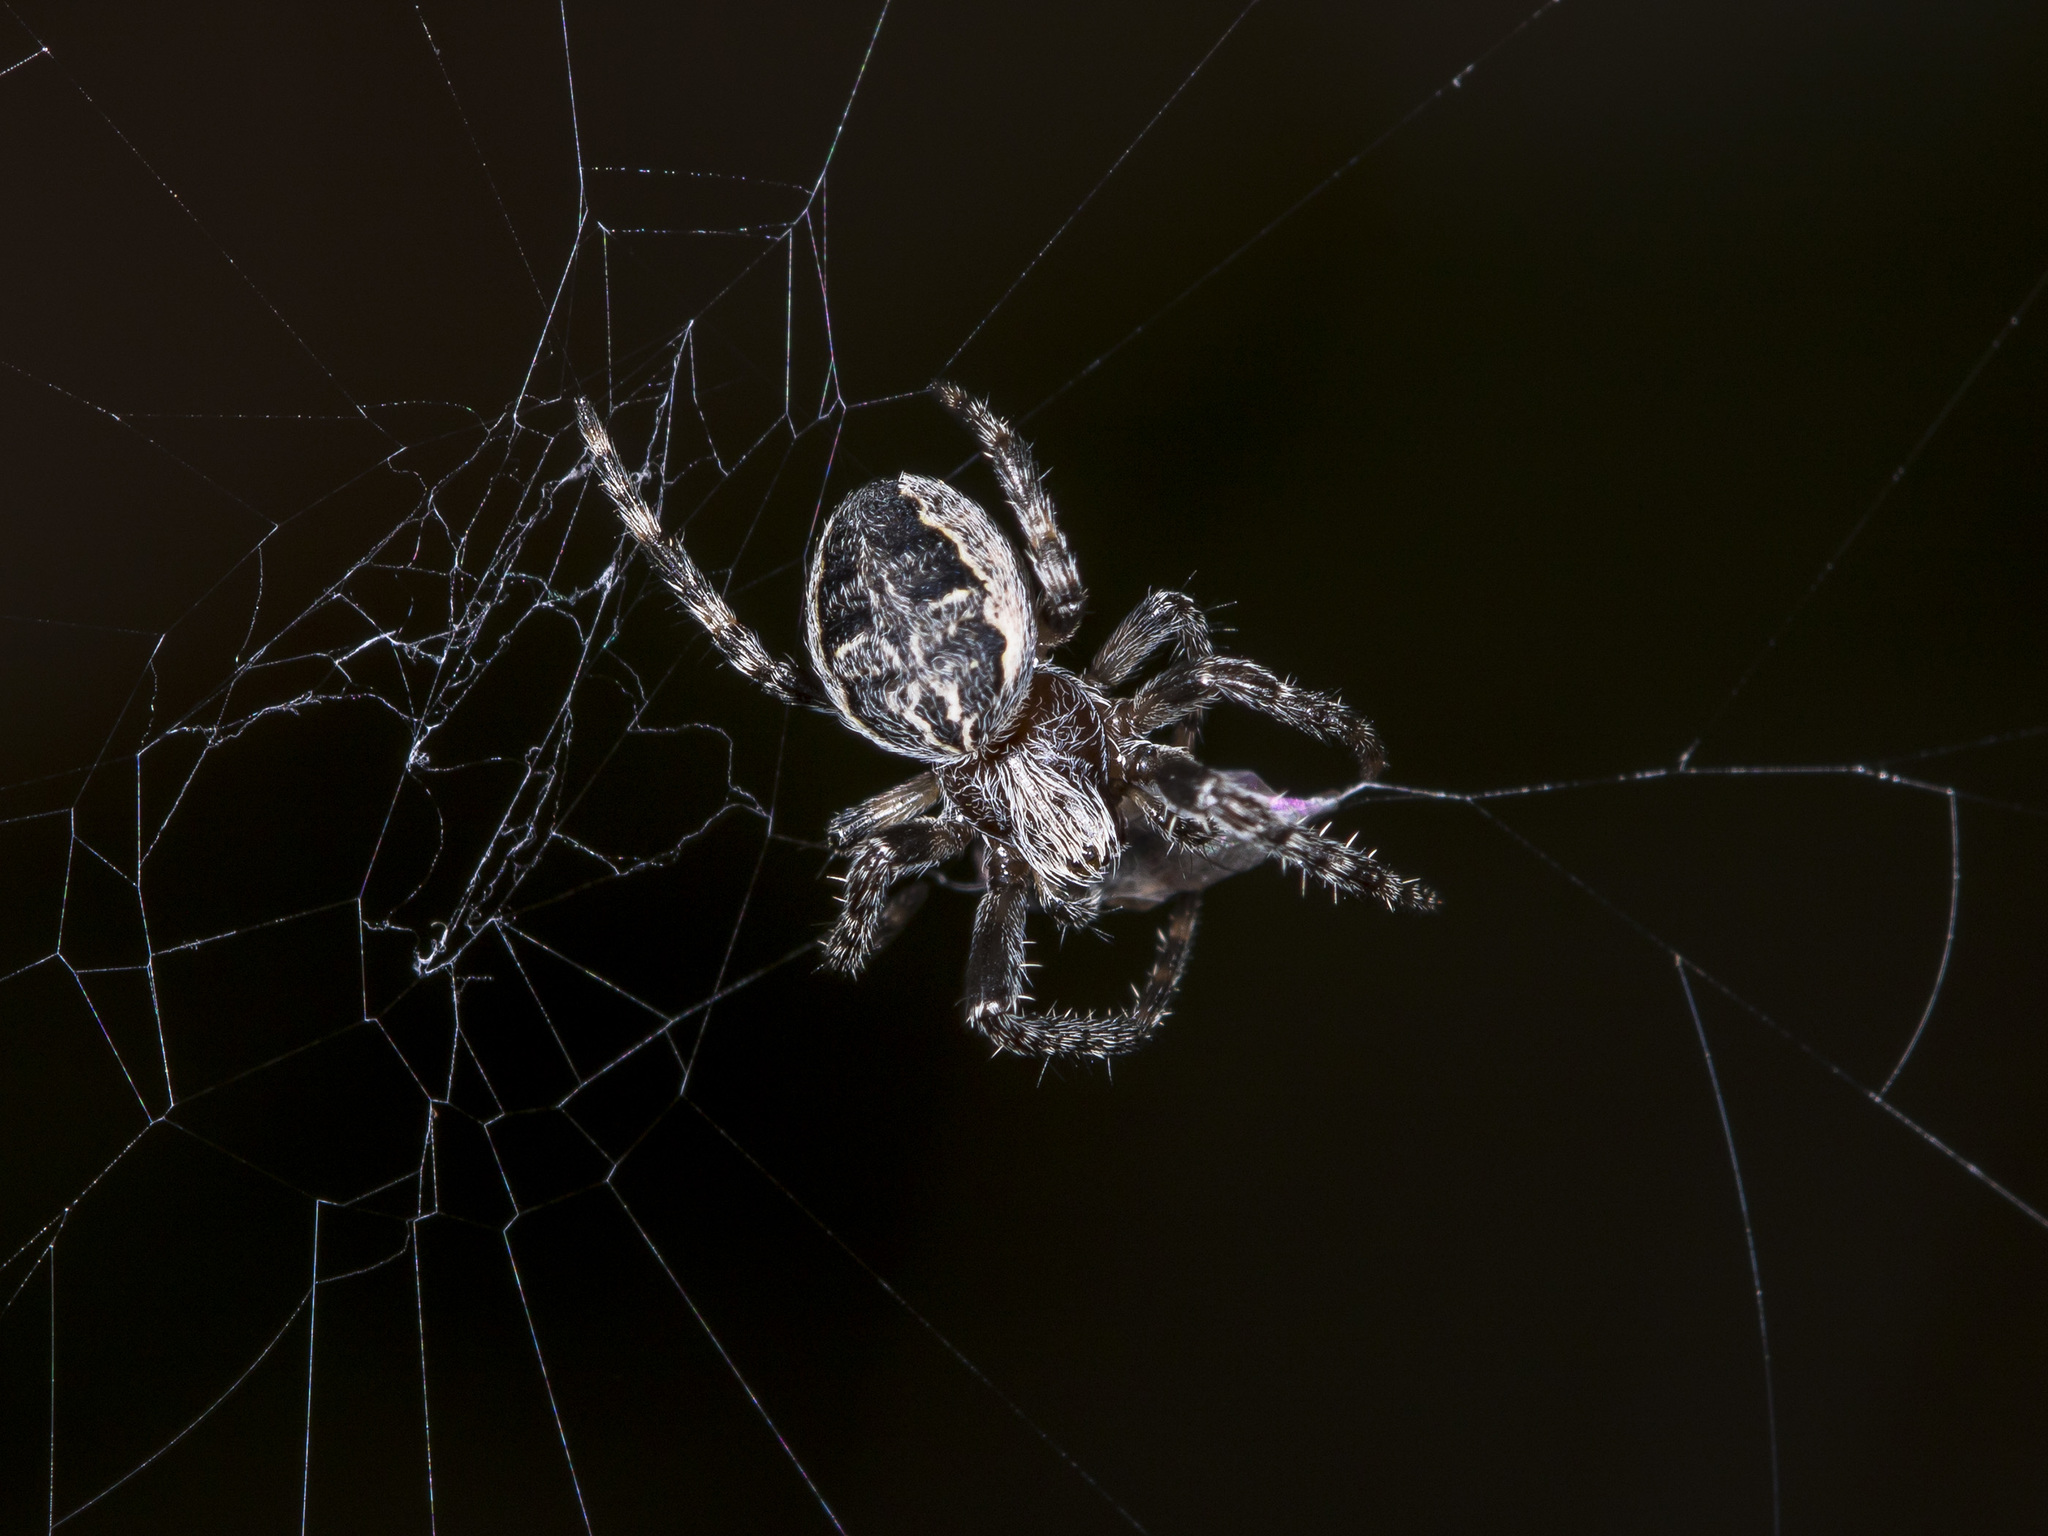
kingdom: Animalia
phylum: Arthropoda
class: Arachnida
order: Araneae
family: Araneidae
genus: Larinioides
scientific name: Larinioides patagiatus
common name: Ornamental orbweaver
